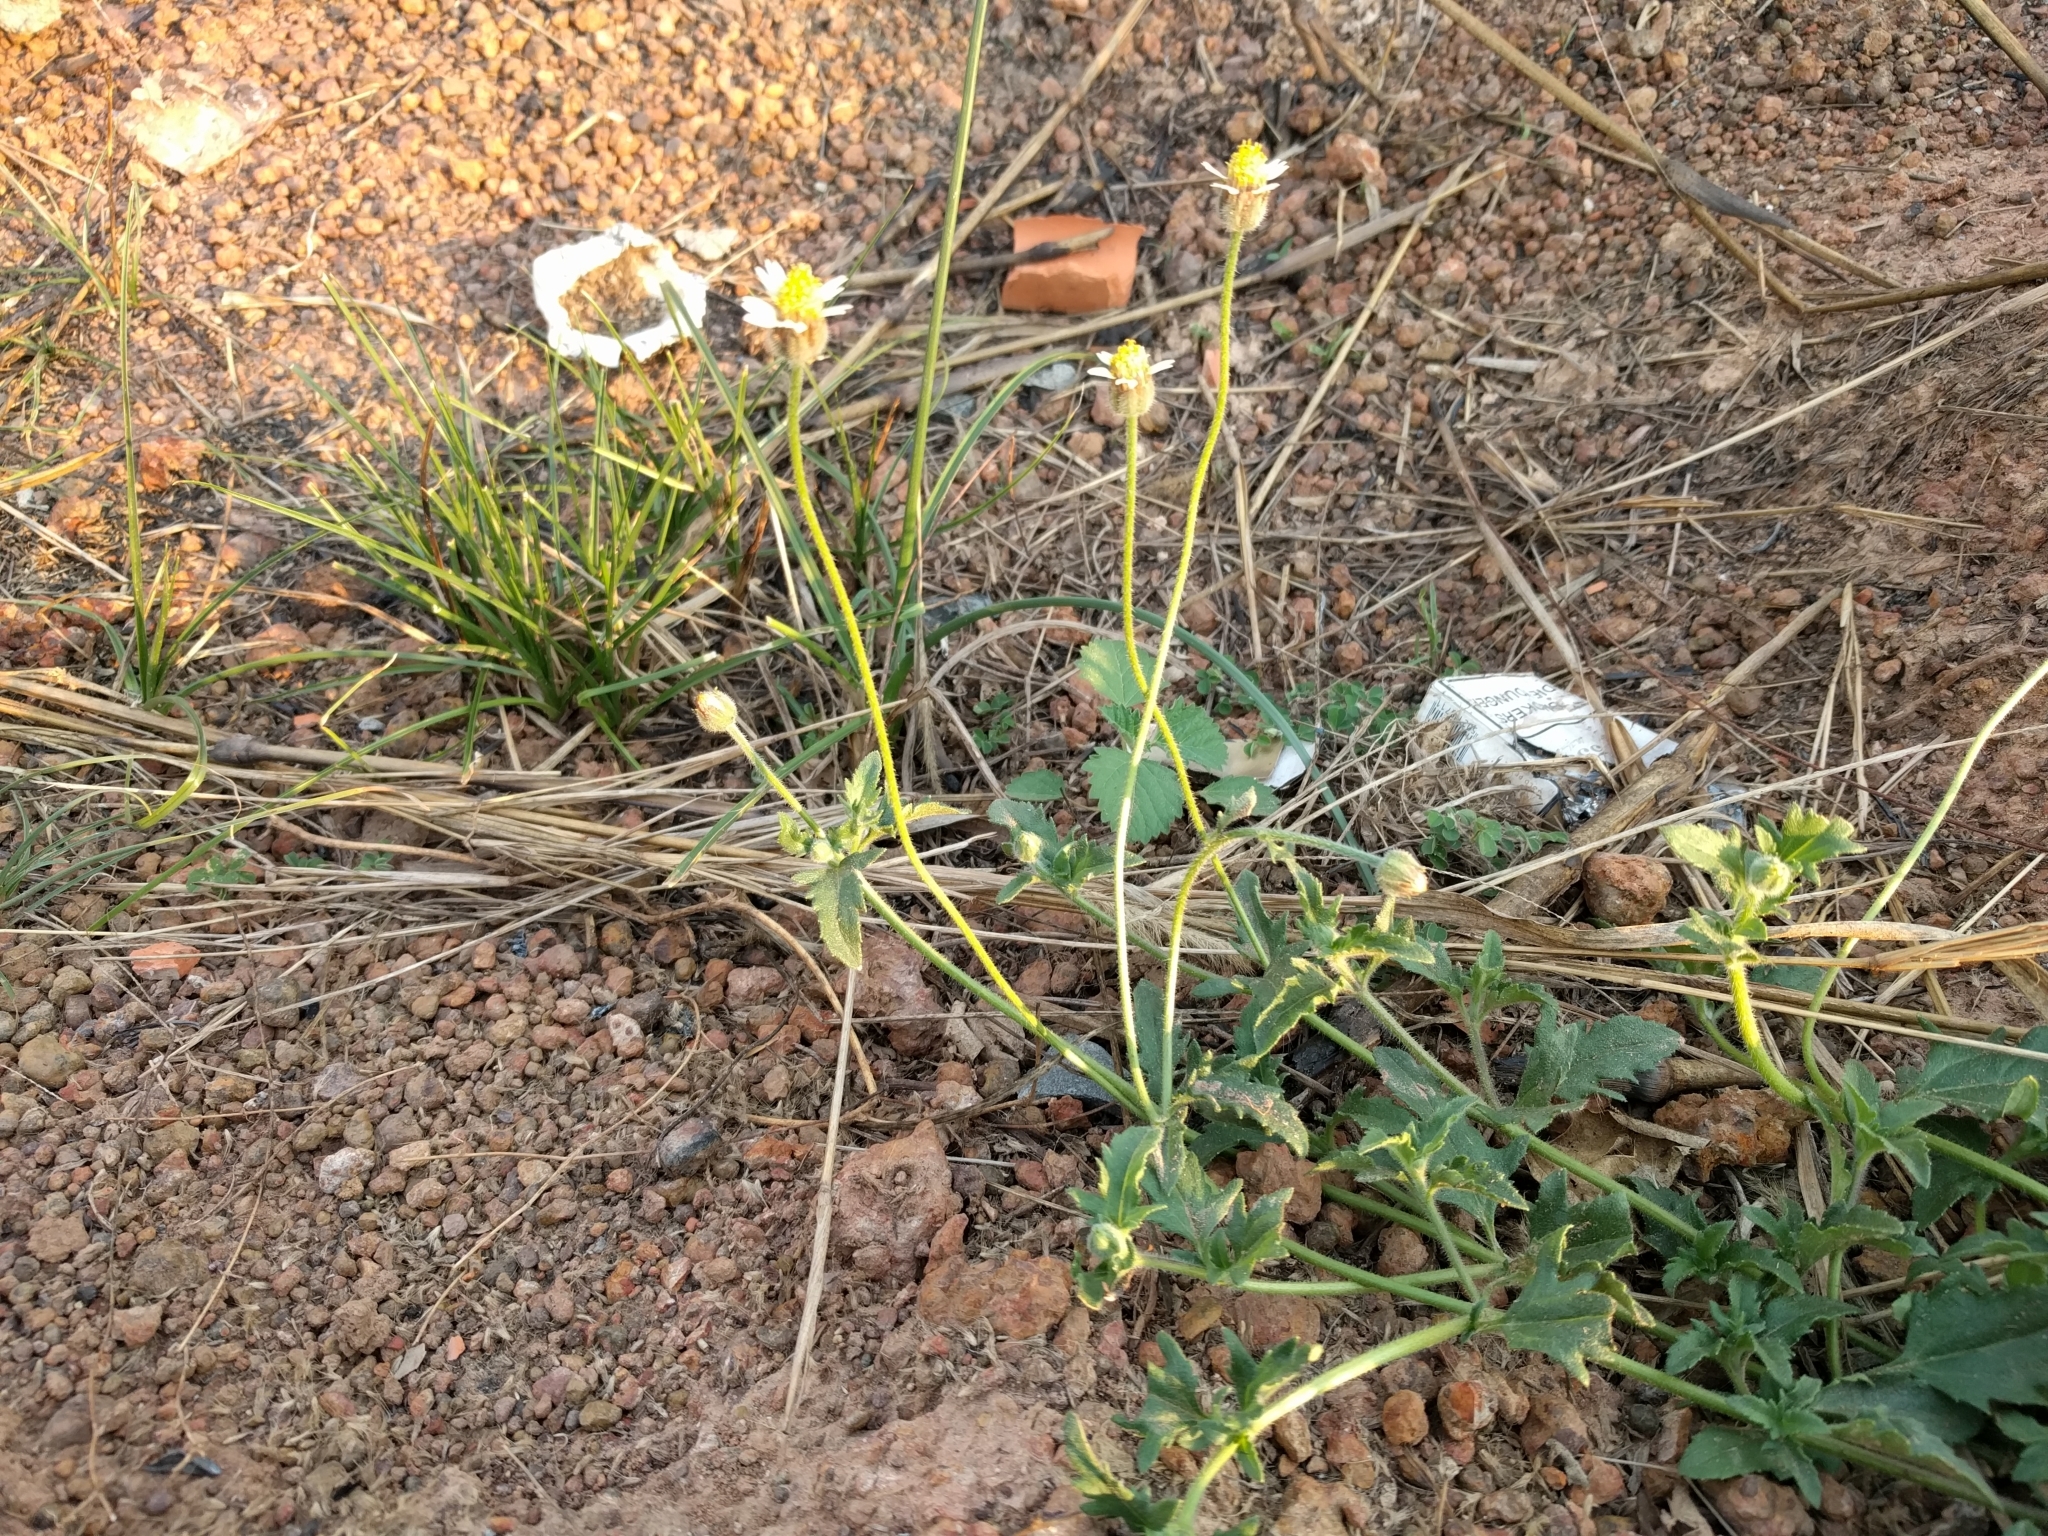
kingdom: Plantae
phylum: Tracheophyta
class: Magnoliopsida
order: Asterales
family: Asteraceae
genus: Tridax
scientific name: Tridax procumbens
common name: Coatbuttons
